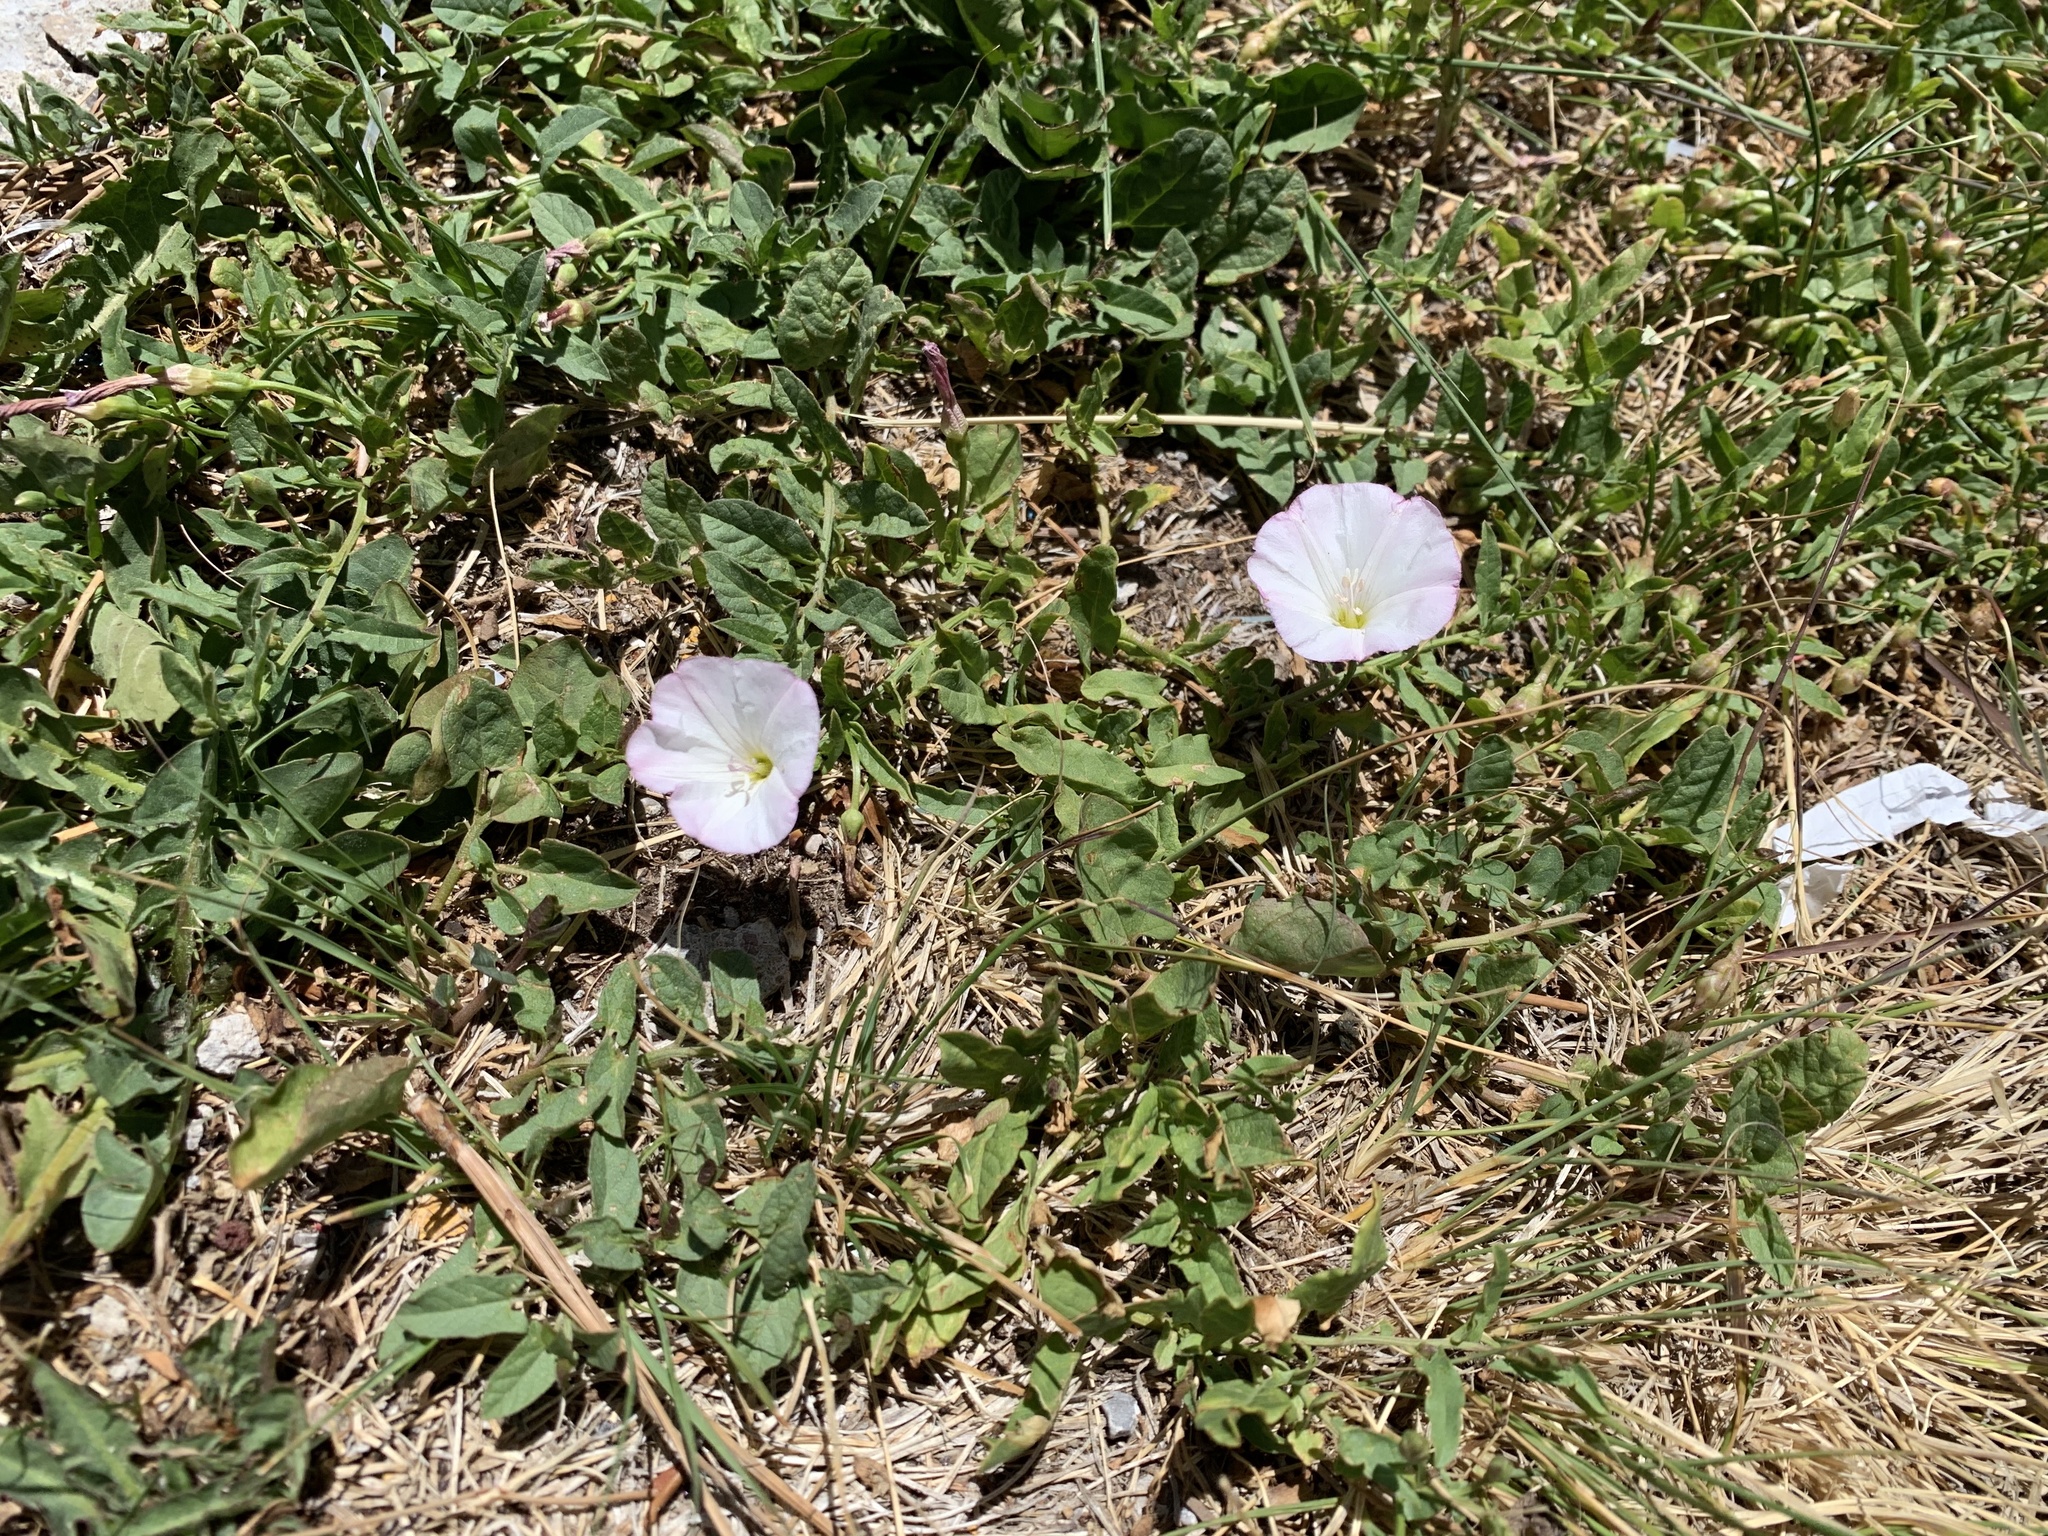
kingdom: Plantae
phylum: Tracheophyta
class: Magnoliopsida
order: Solanales
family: Convolvulaceae
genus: Convolvulus
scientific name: Convolvulus arvensis
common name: Field bindweed
